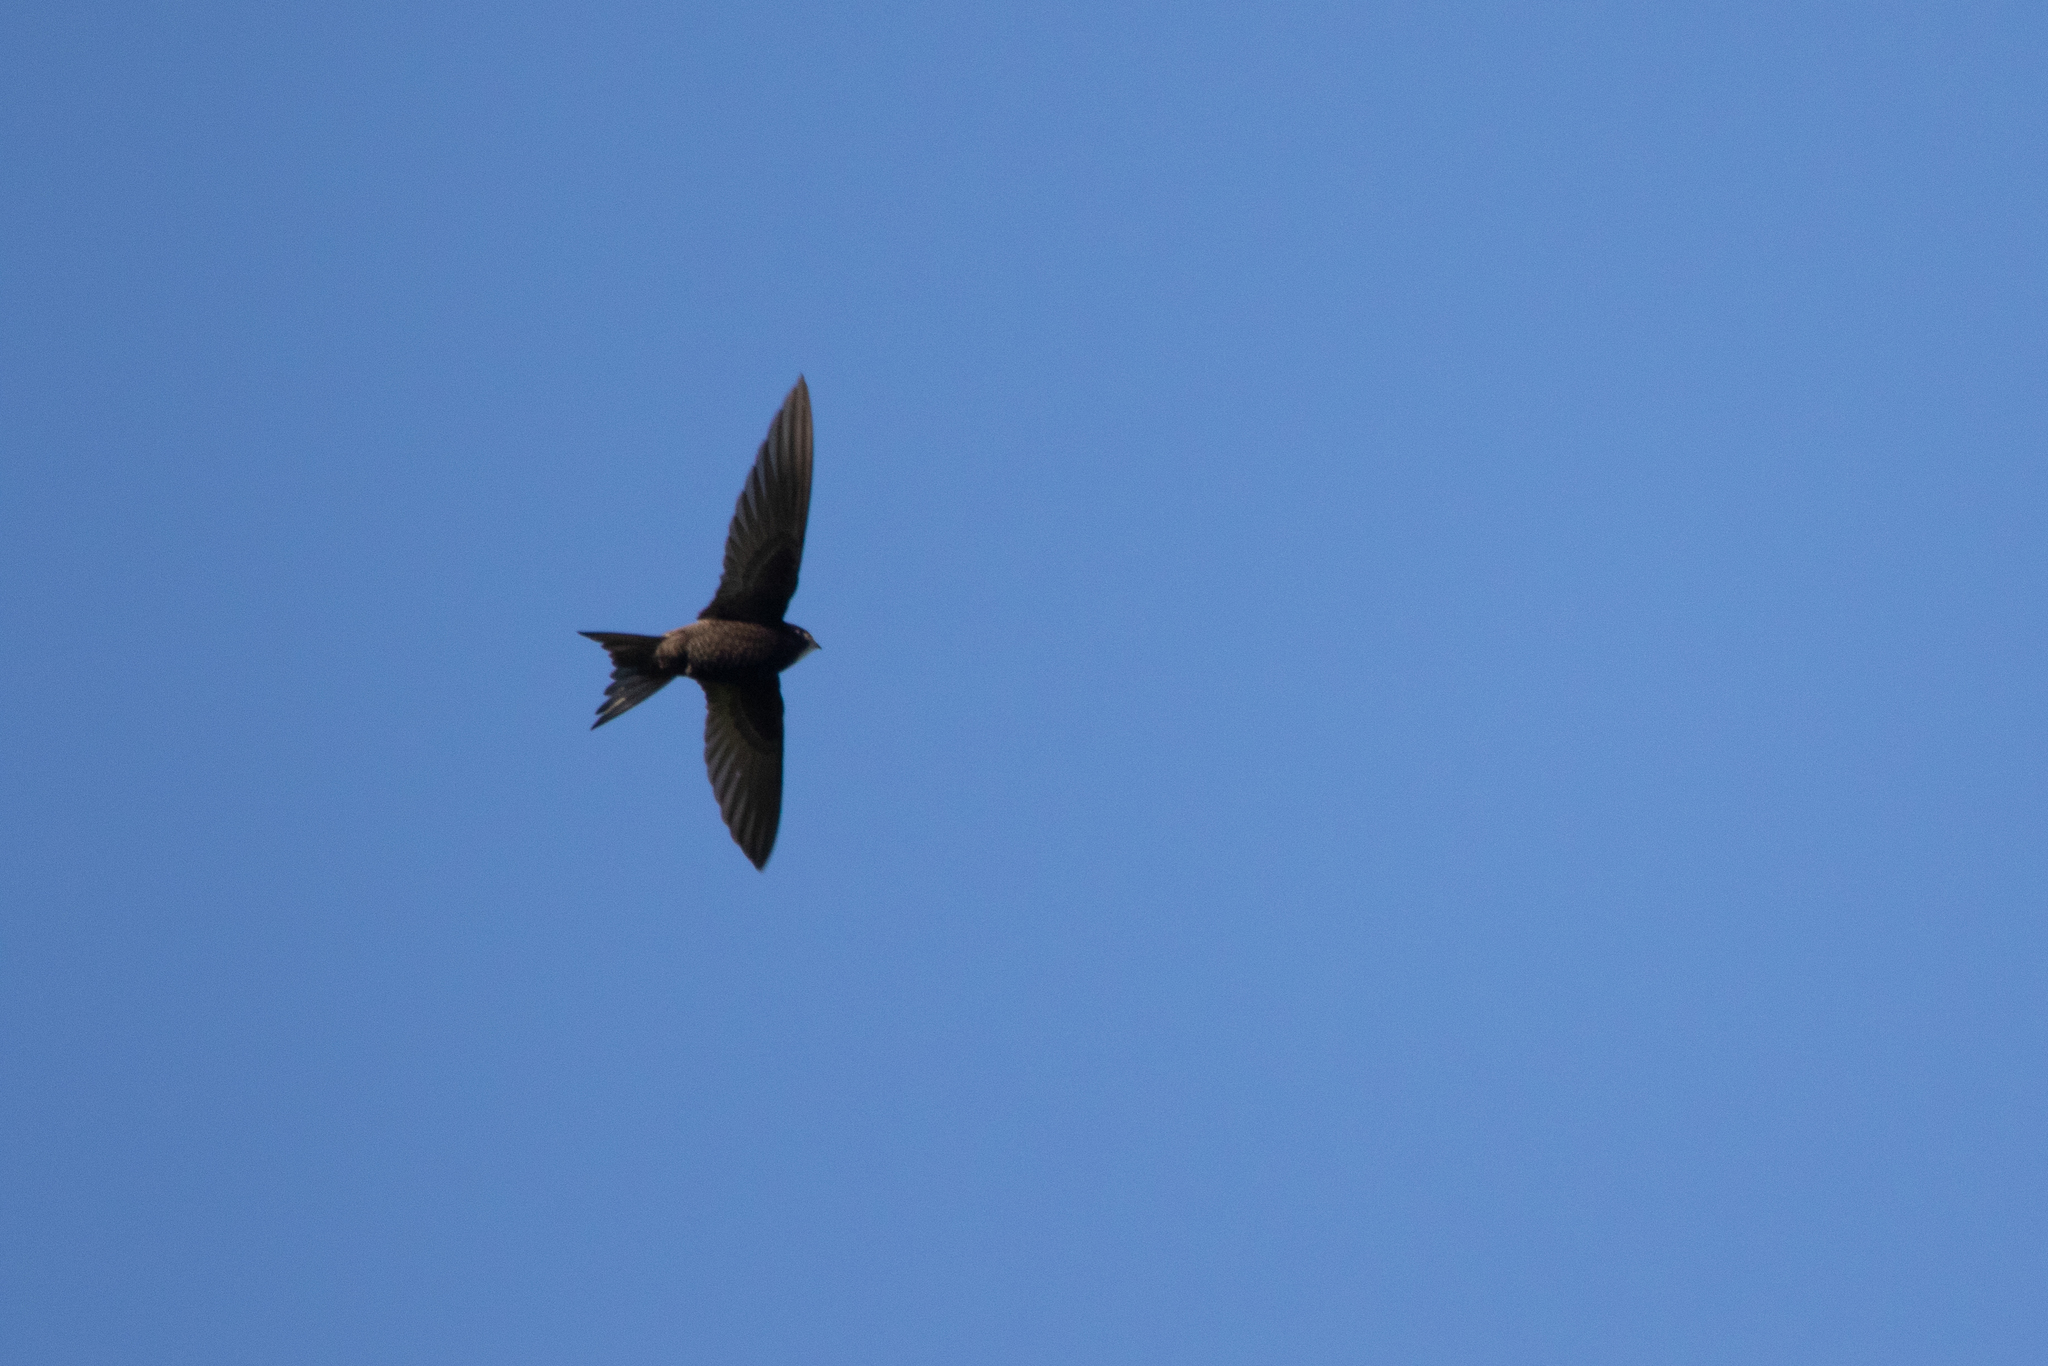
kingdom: Animalia
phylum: Chordata
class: Aves
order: Apodiformes
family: Apodidae
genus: Apus
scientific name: Apus apus
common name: Common swift
